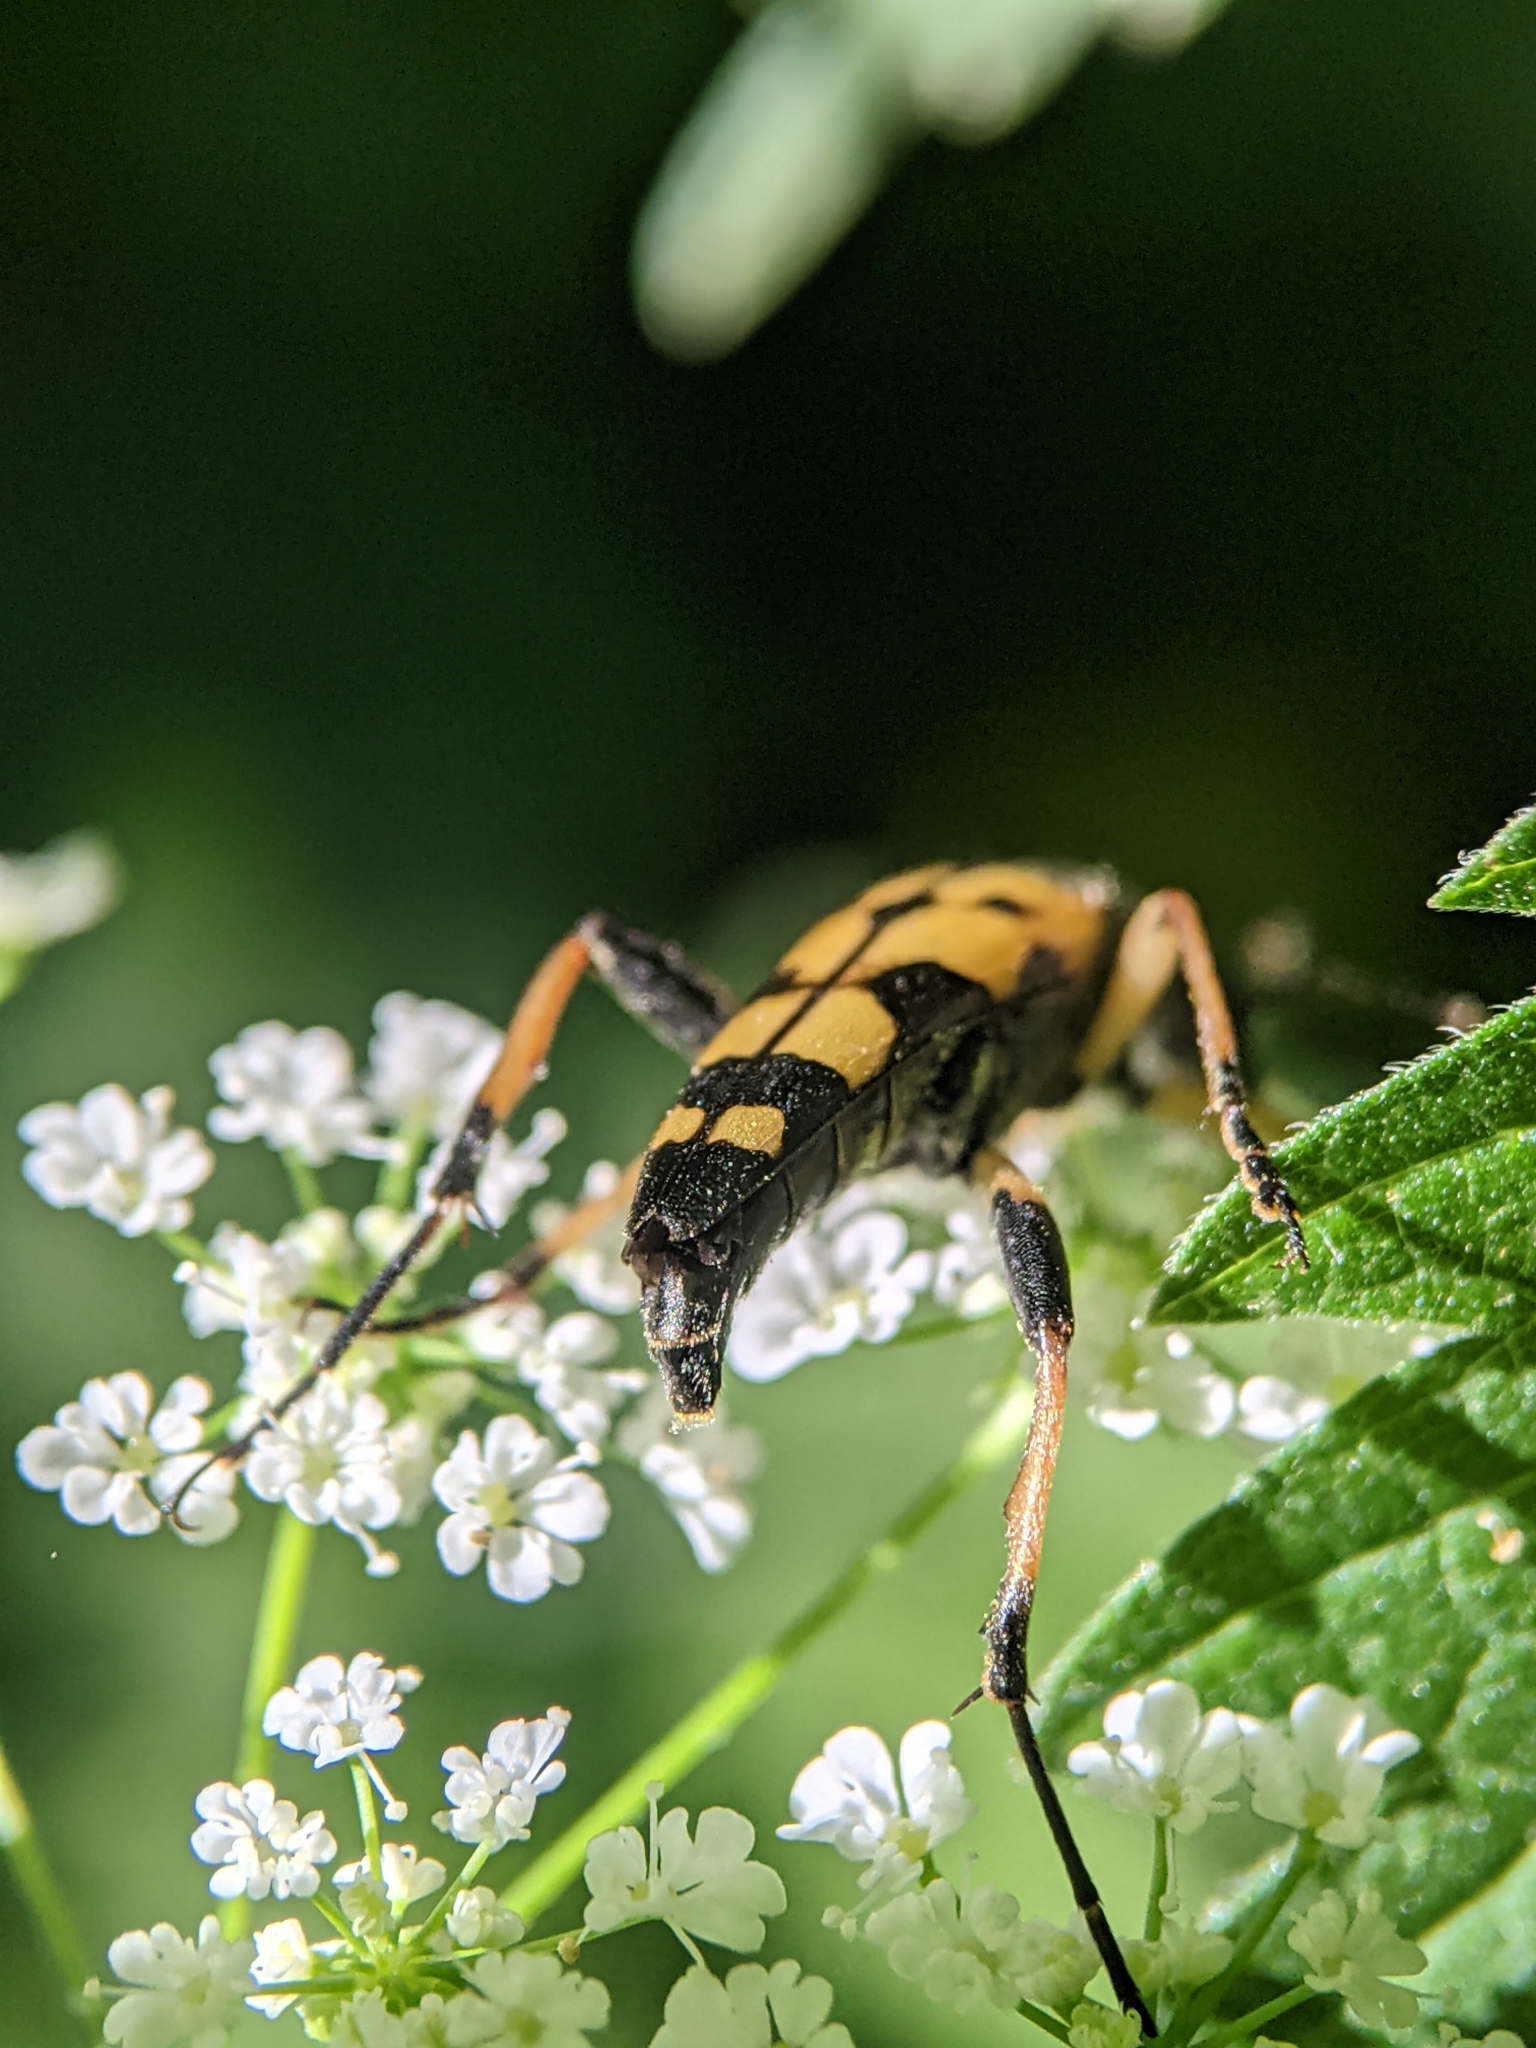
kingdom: Animalia
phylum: Arthropoda
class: Insecta
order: Coleoptera
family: Cerambycidae
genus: Rutpela
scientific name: Rutpela maculata
